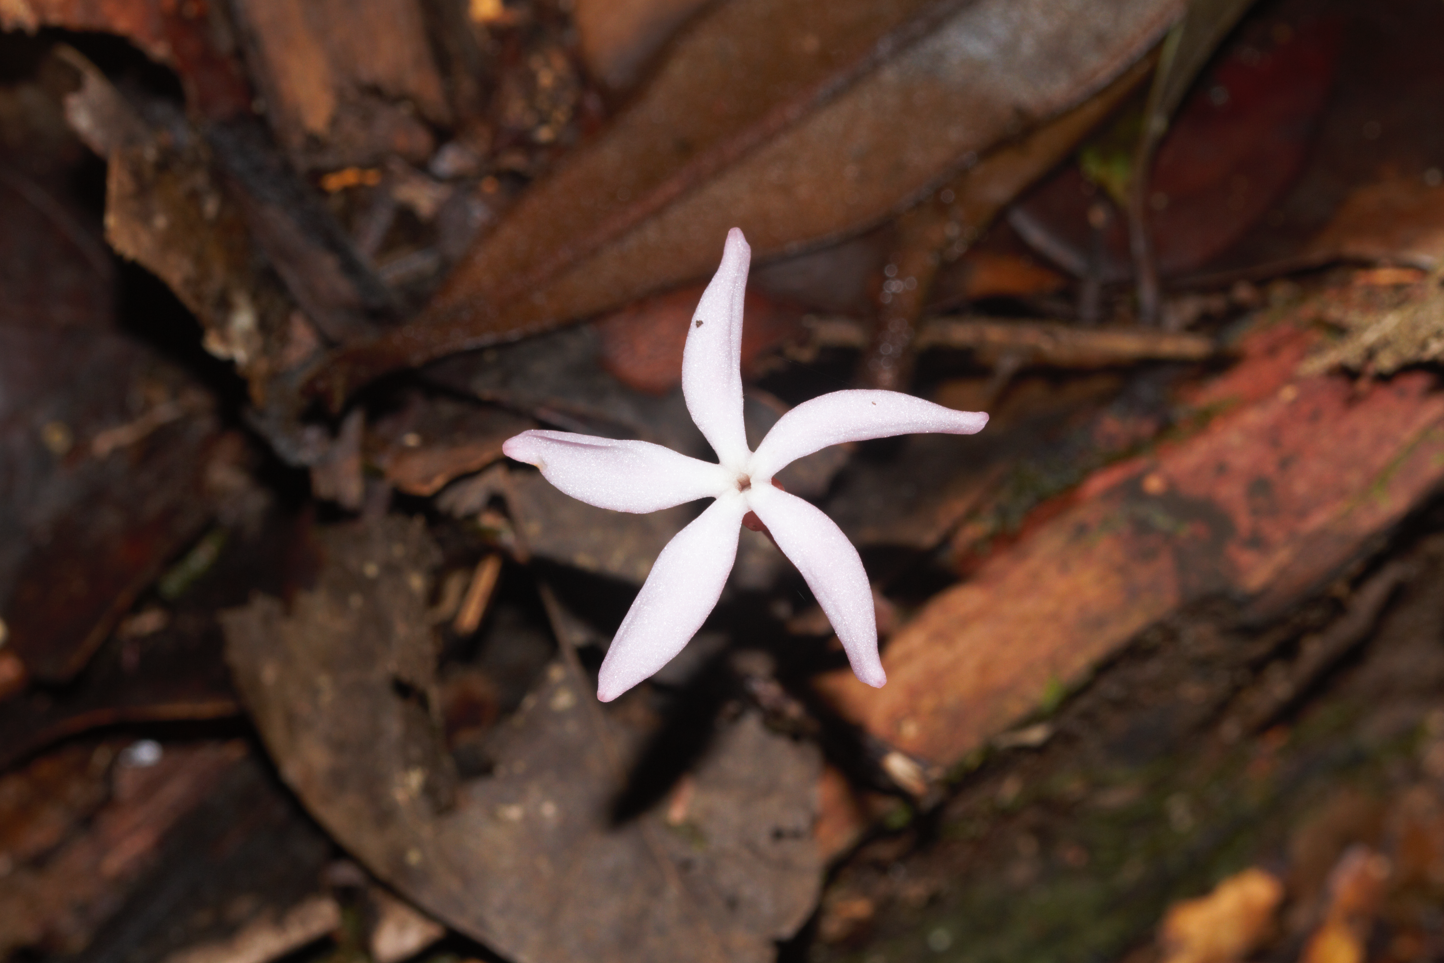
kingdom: Plantae
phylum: Tracheophyta
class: Magnoliopsida
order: Gentianales
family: Gentianaceae
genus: Voyria
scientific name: Voyria rosea
